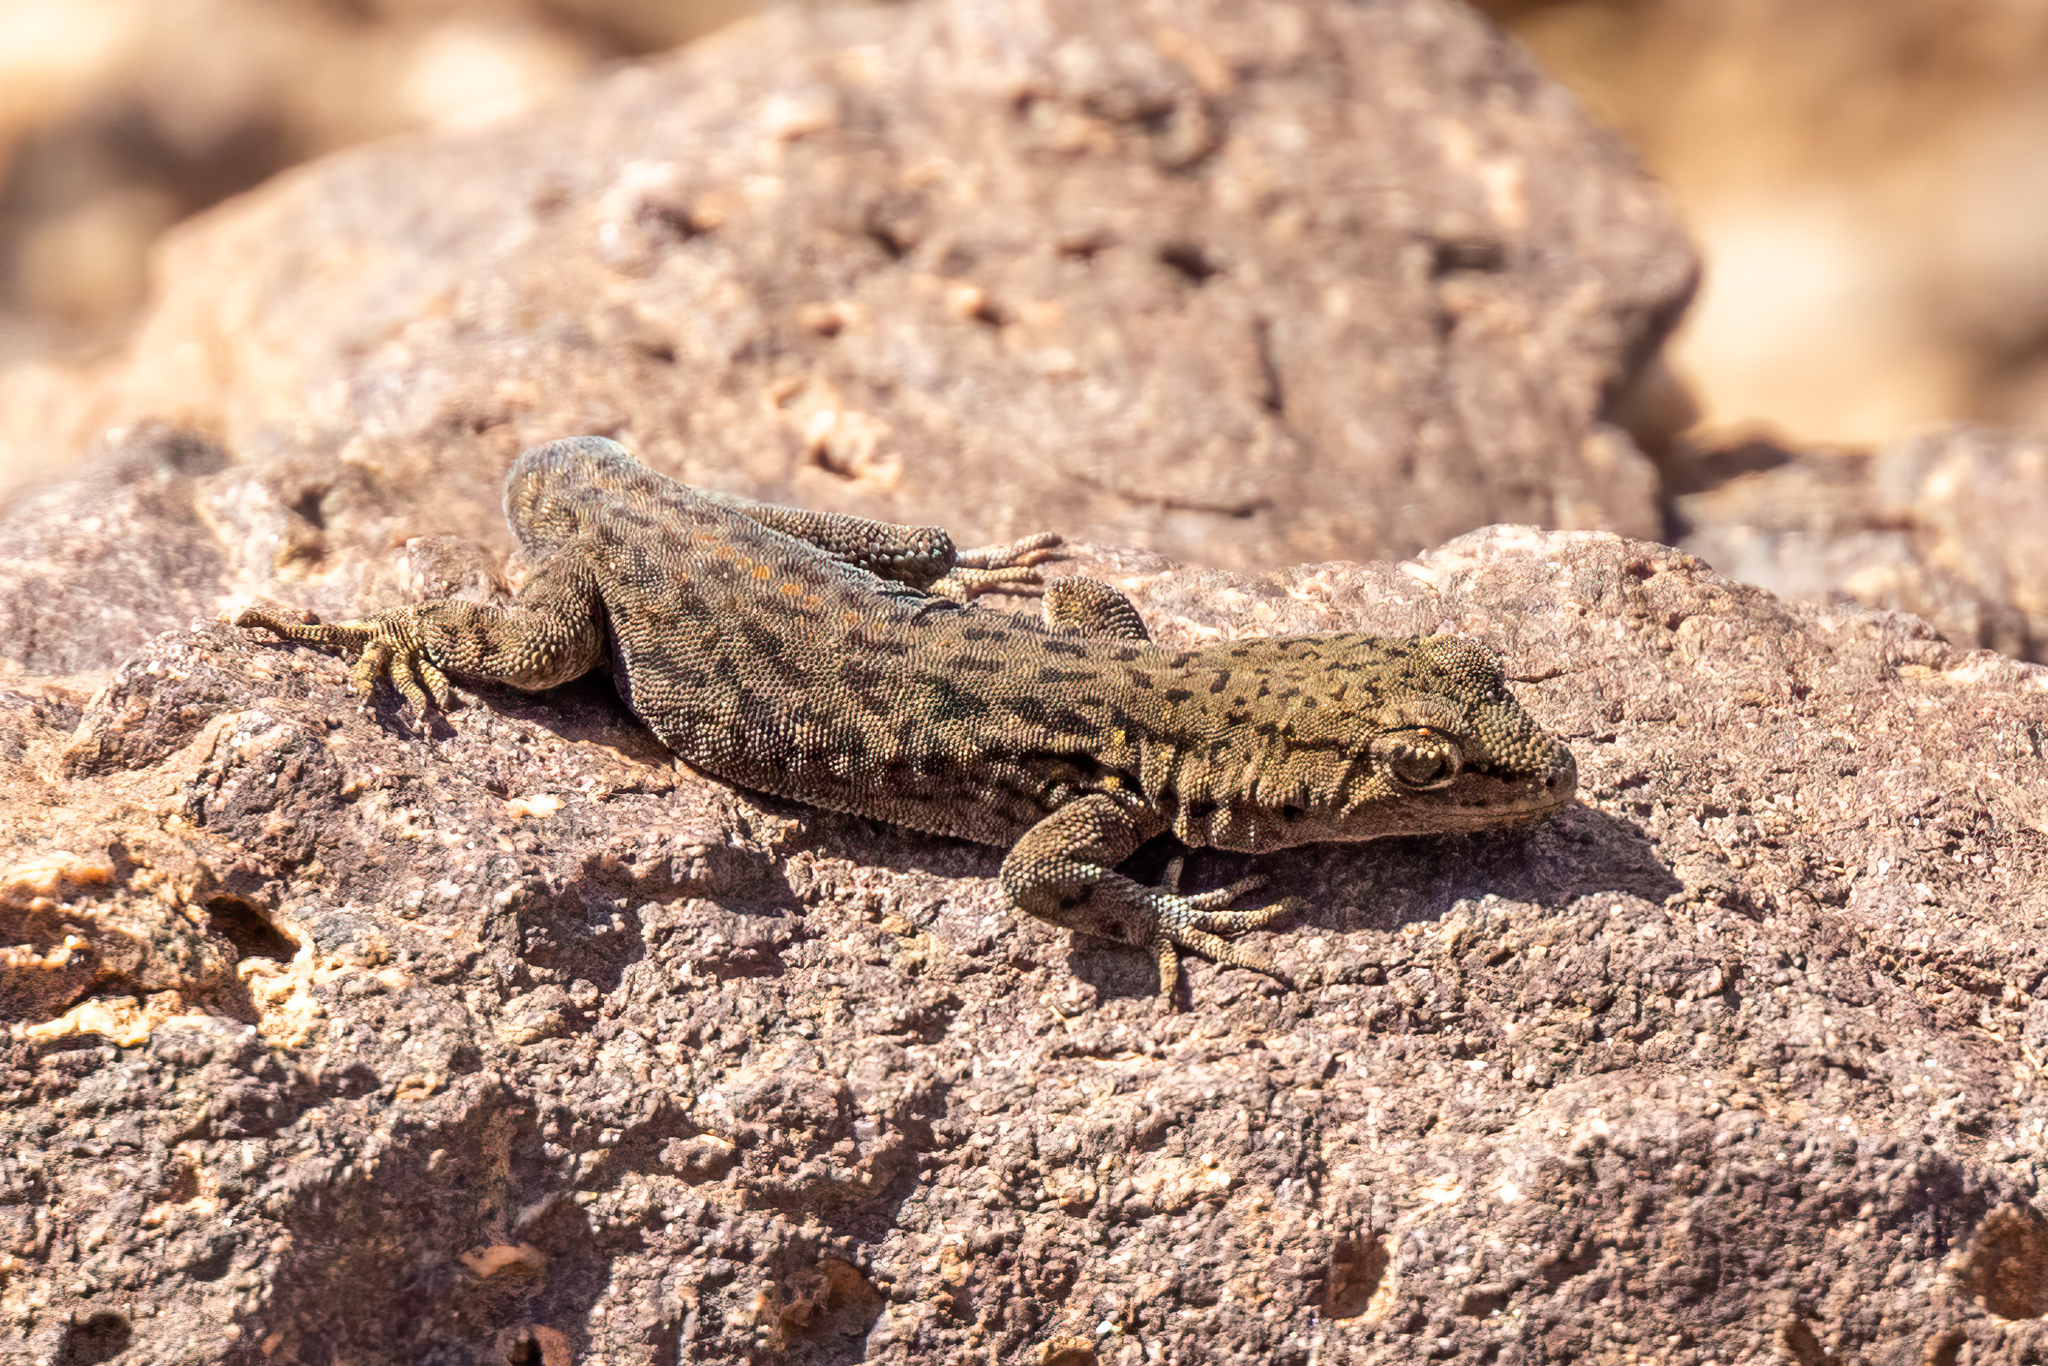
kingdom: Animalia
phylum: Chordata
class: Squamata
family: Sphaerodactylidae
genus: Quedenfeldtia
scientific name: Quedenfeldtia trachyblepharus
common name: Atlas day gecko
